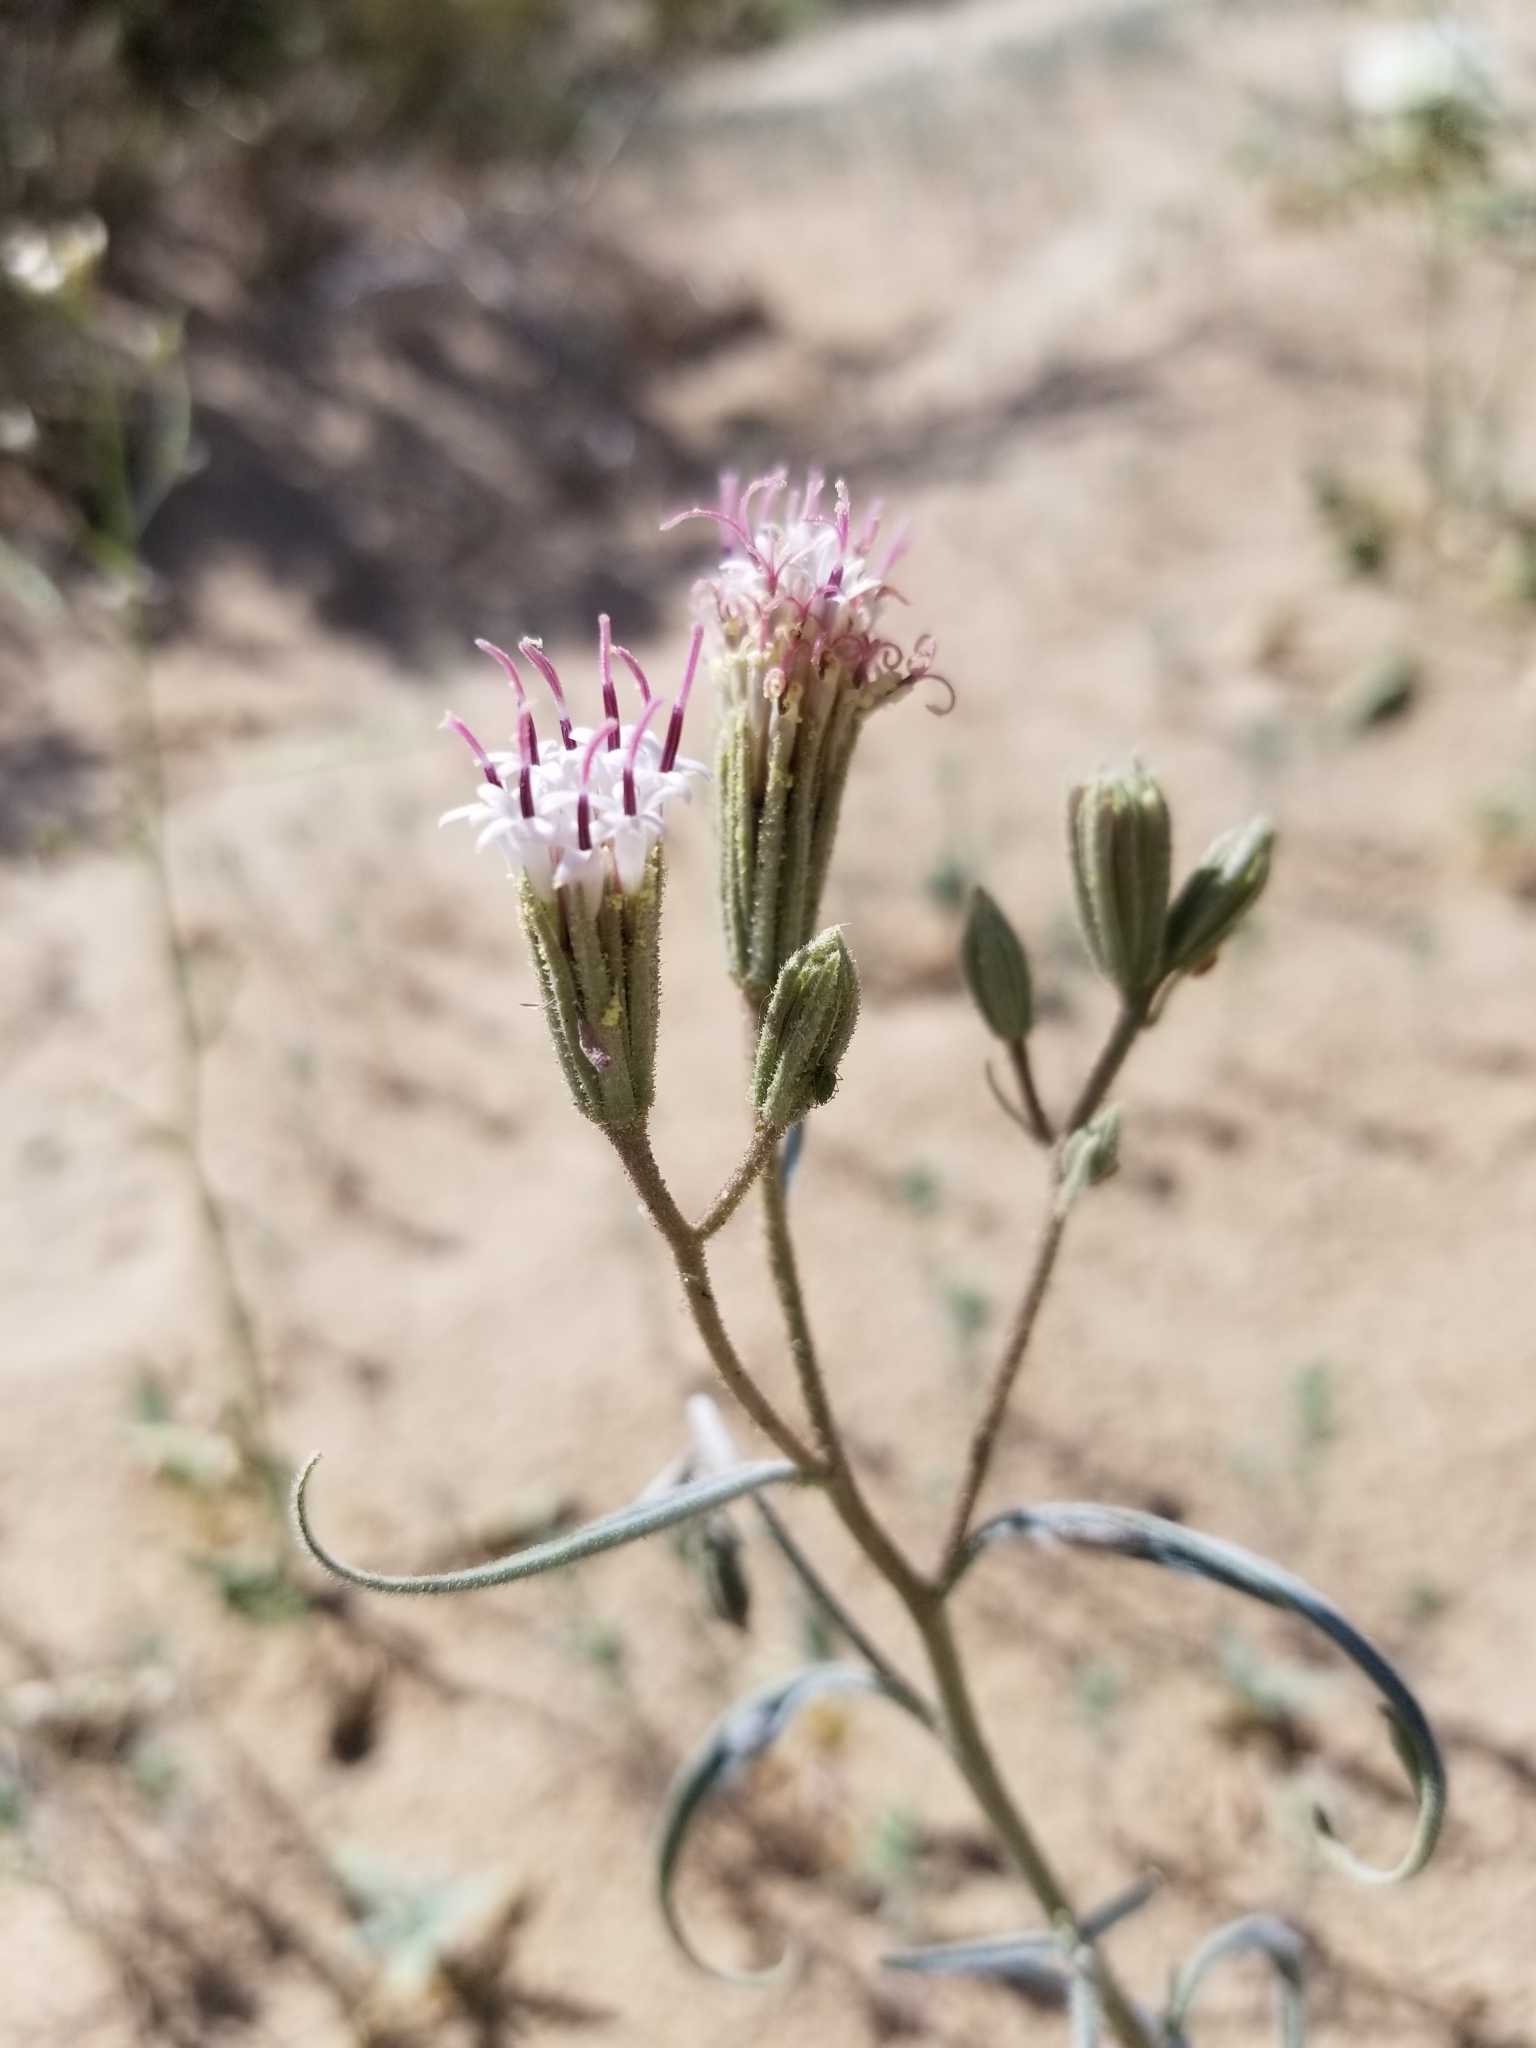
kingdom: Plantae
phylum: Tracheophyta
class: Magnoliopsida
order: Asterales
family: Asteraceae
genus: Palafoxia
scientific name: Palafoxia arida
